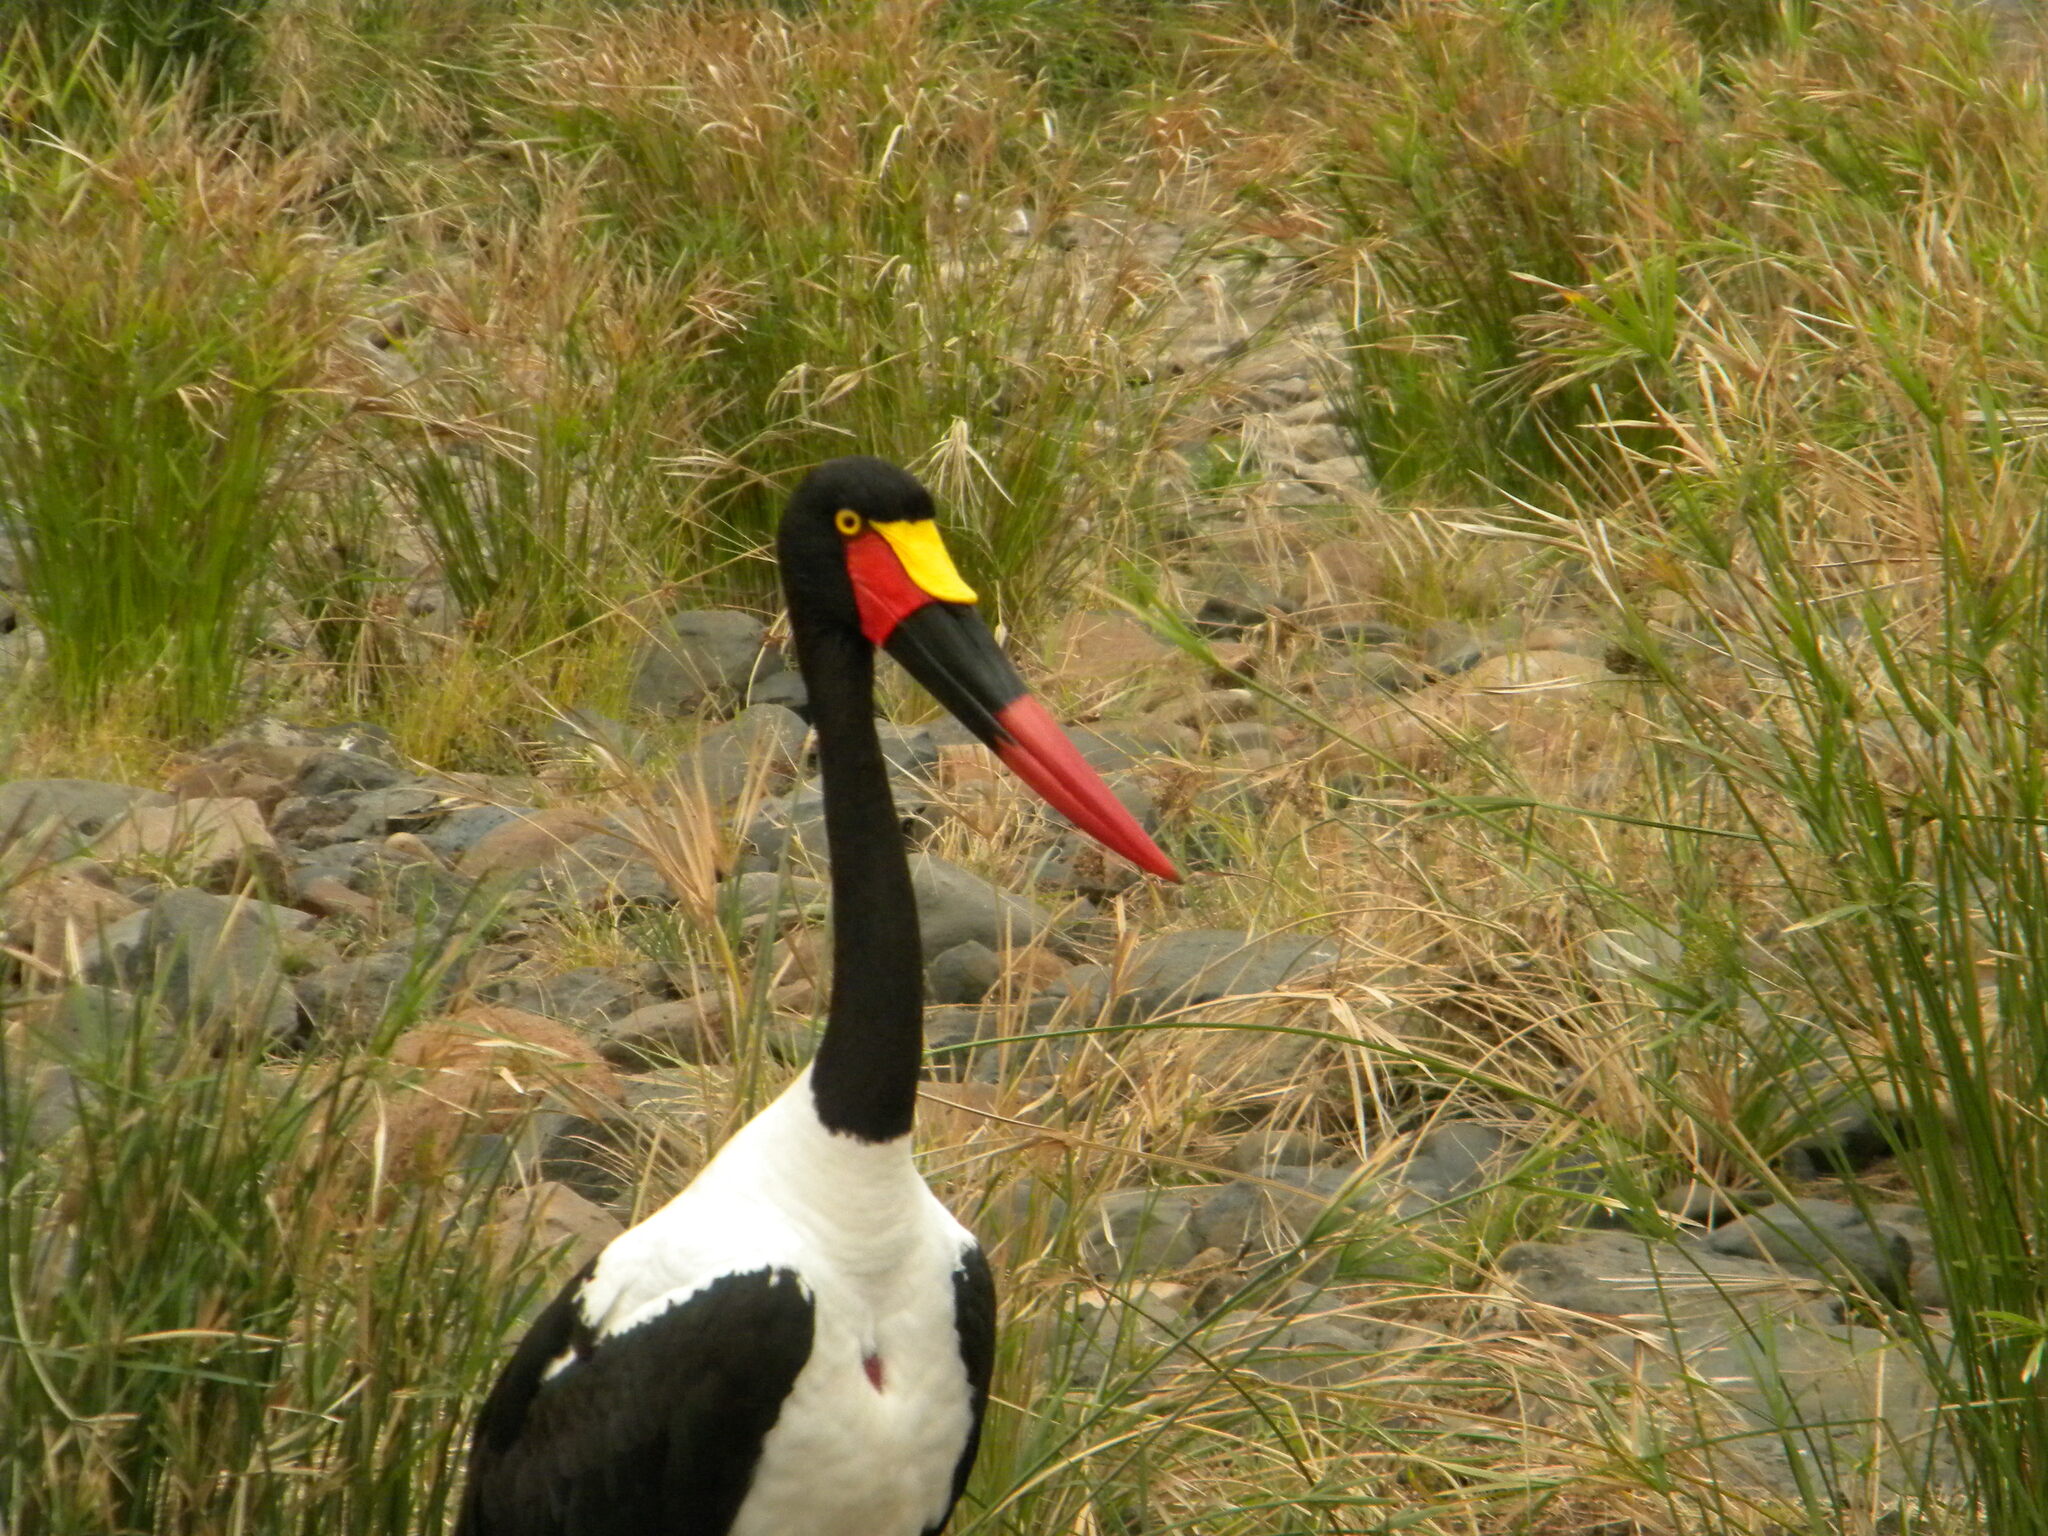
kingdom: Animalia
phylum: Chordata
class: Aves
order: Ciconiiformes
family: Ciconiidae
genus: Ephippiorhynchus
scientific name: Ephippiorhynchus senegalensis
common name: Saddle-billed stork
